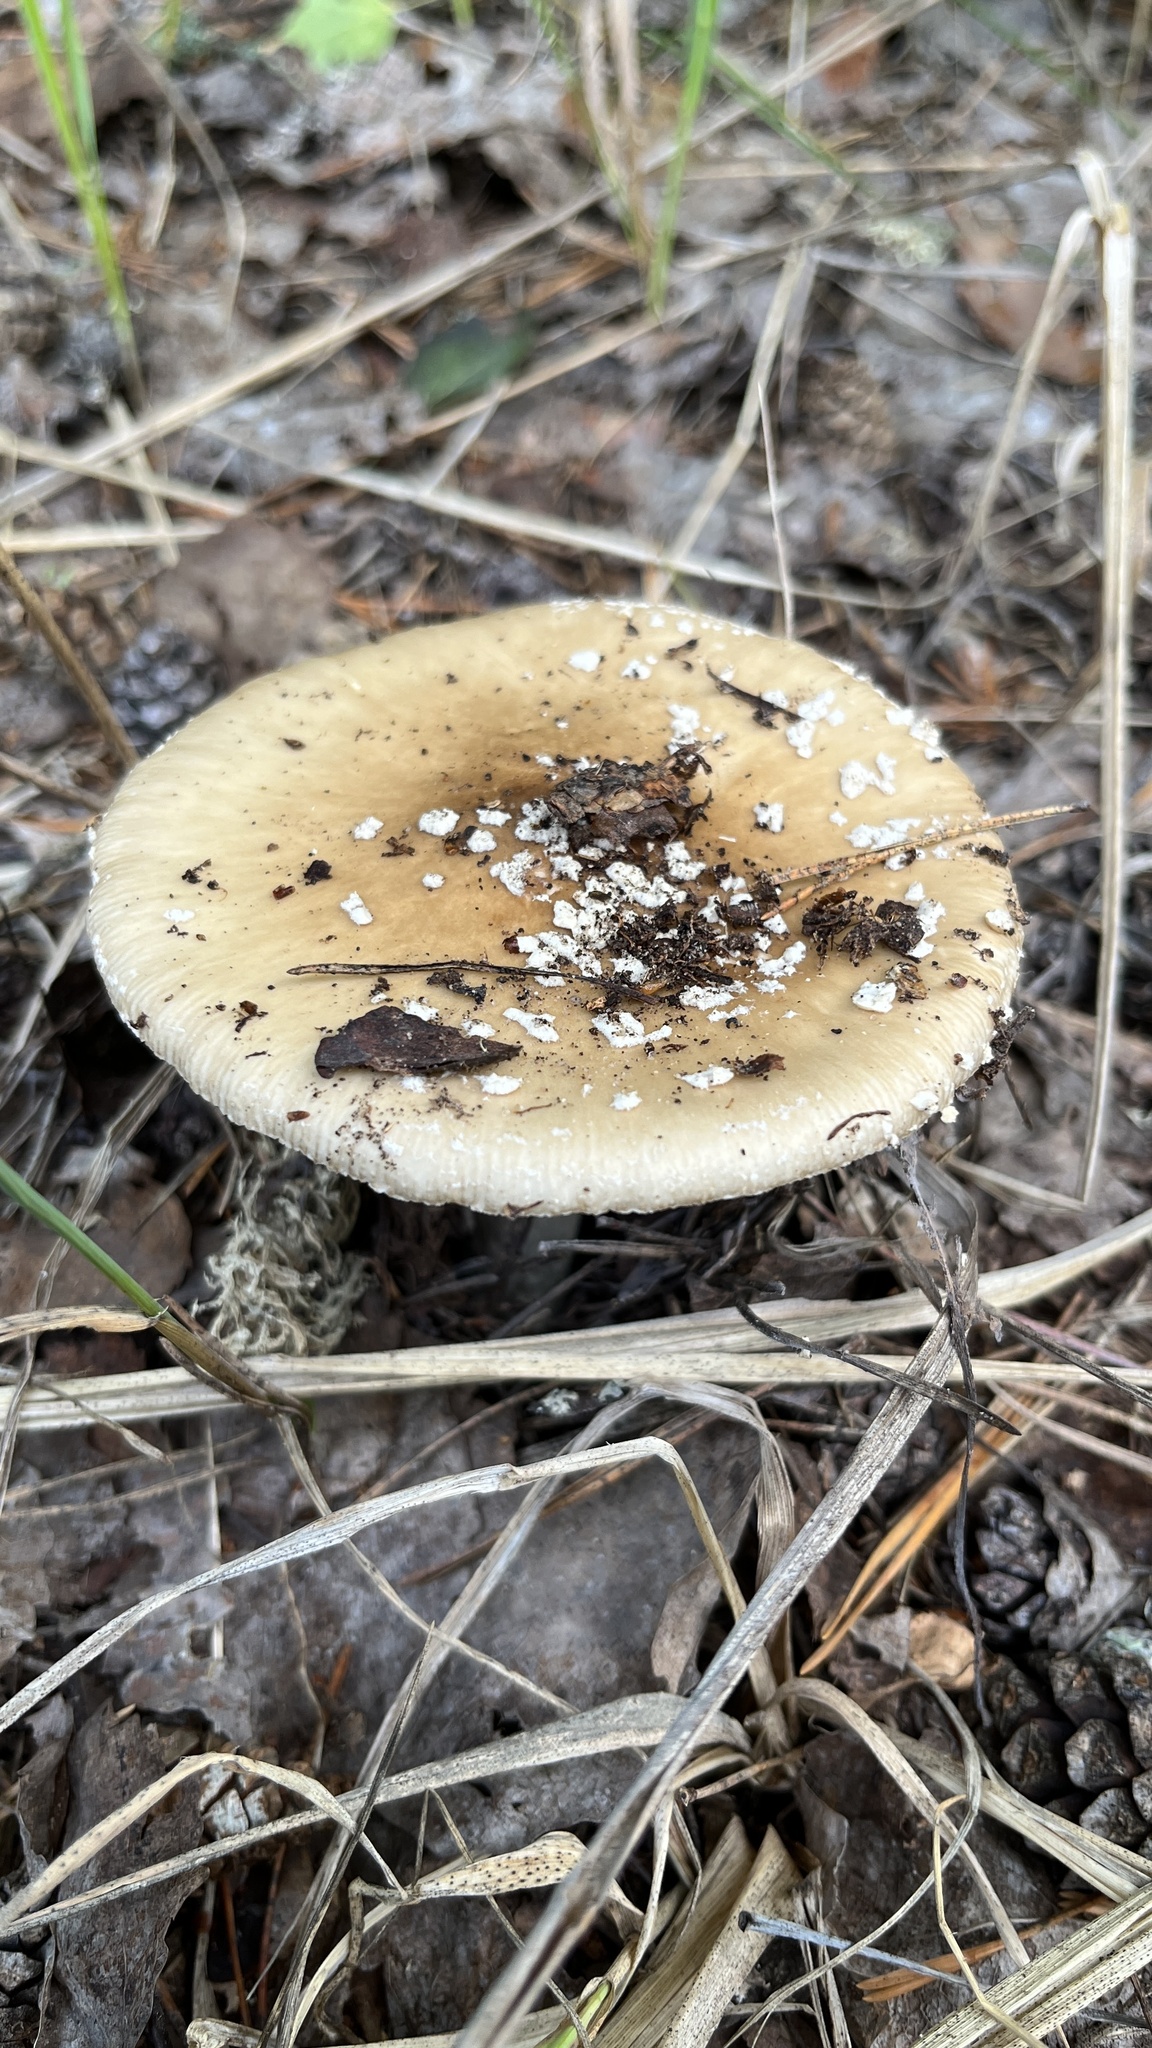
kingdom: Fungi
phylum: Basidiomycota
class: Agaricomycetes
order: Agaricales
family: Amanitaceae
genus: Amanita
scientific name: Amanita pantherina
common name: Panthercap
